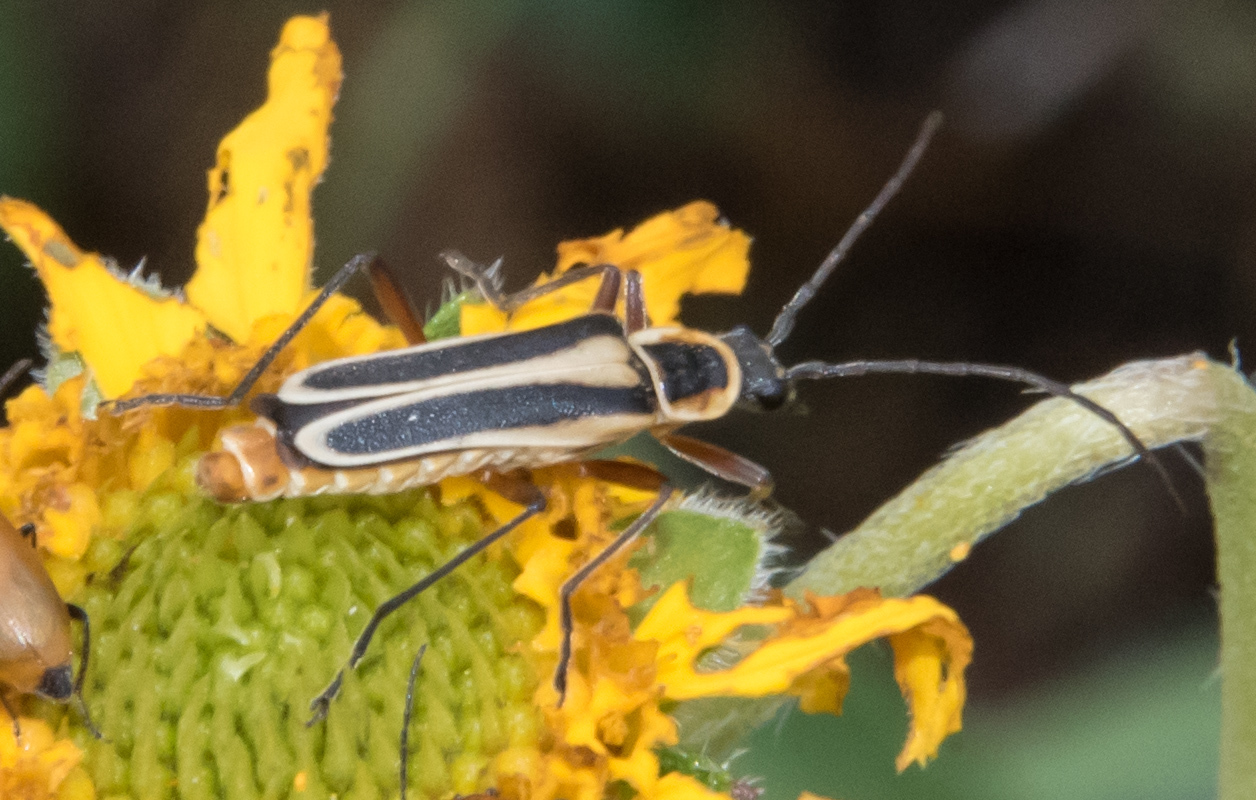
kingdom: Animalia
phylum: Arthropoda
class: Insecta
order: Coleoptera
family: Cantharidae
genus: Chauliognathus
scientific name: Chauliognathus lewisi
